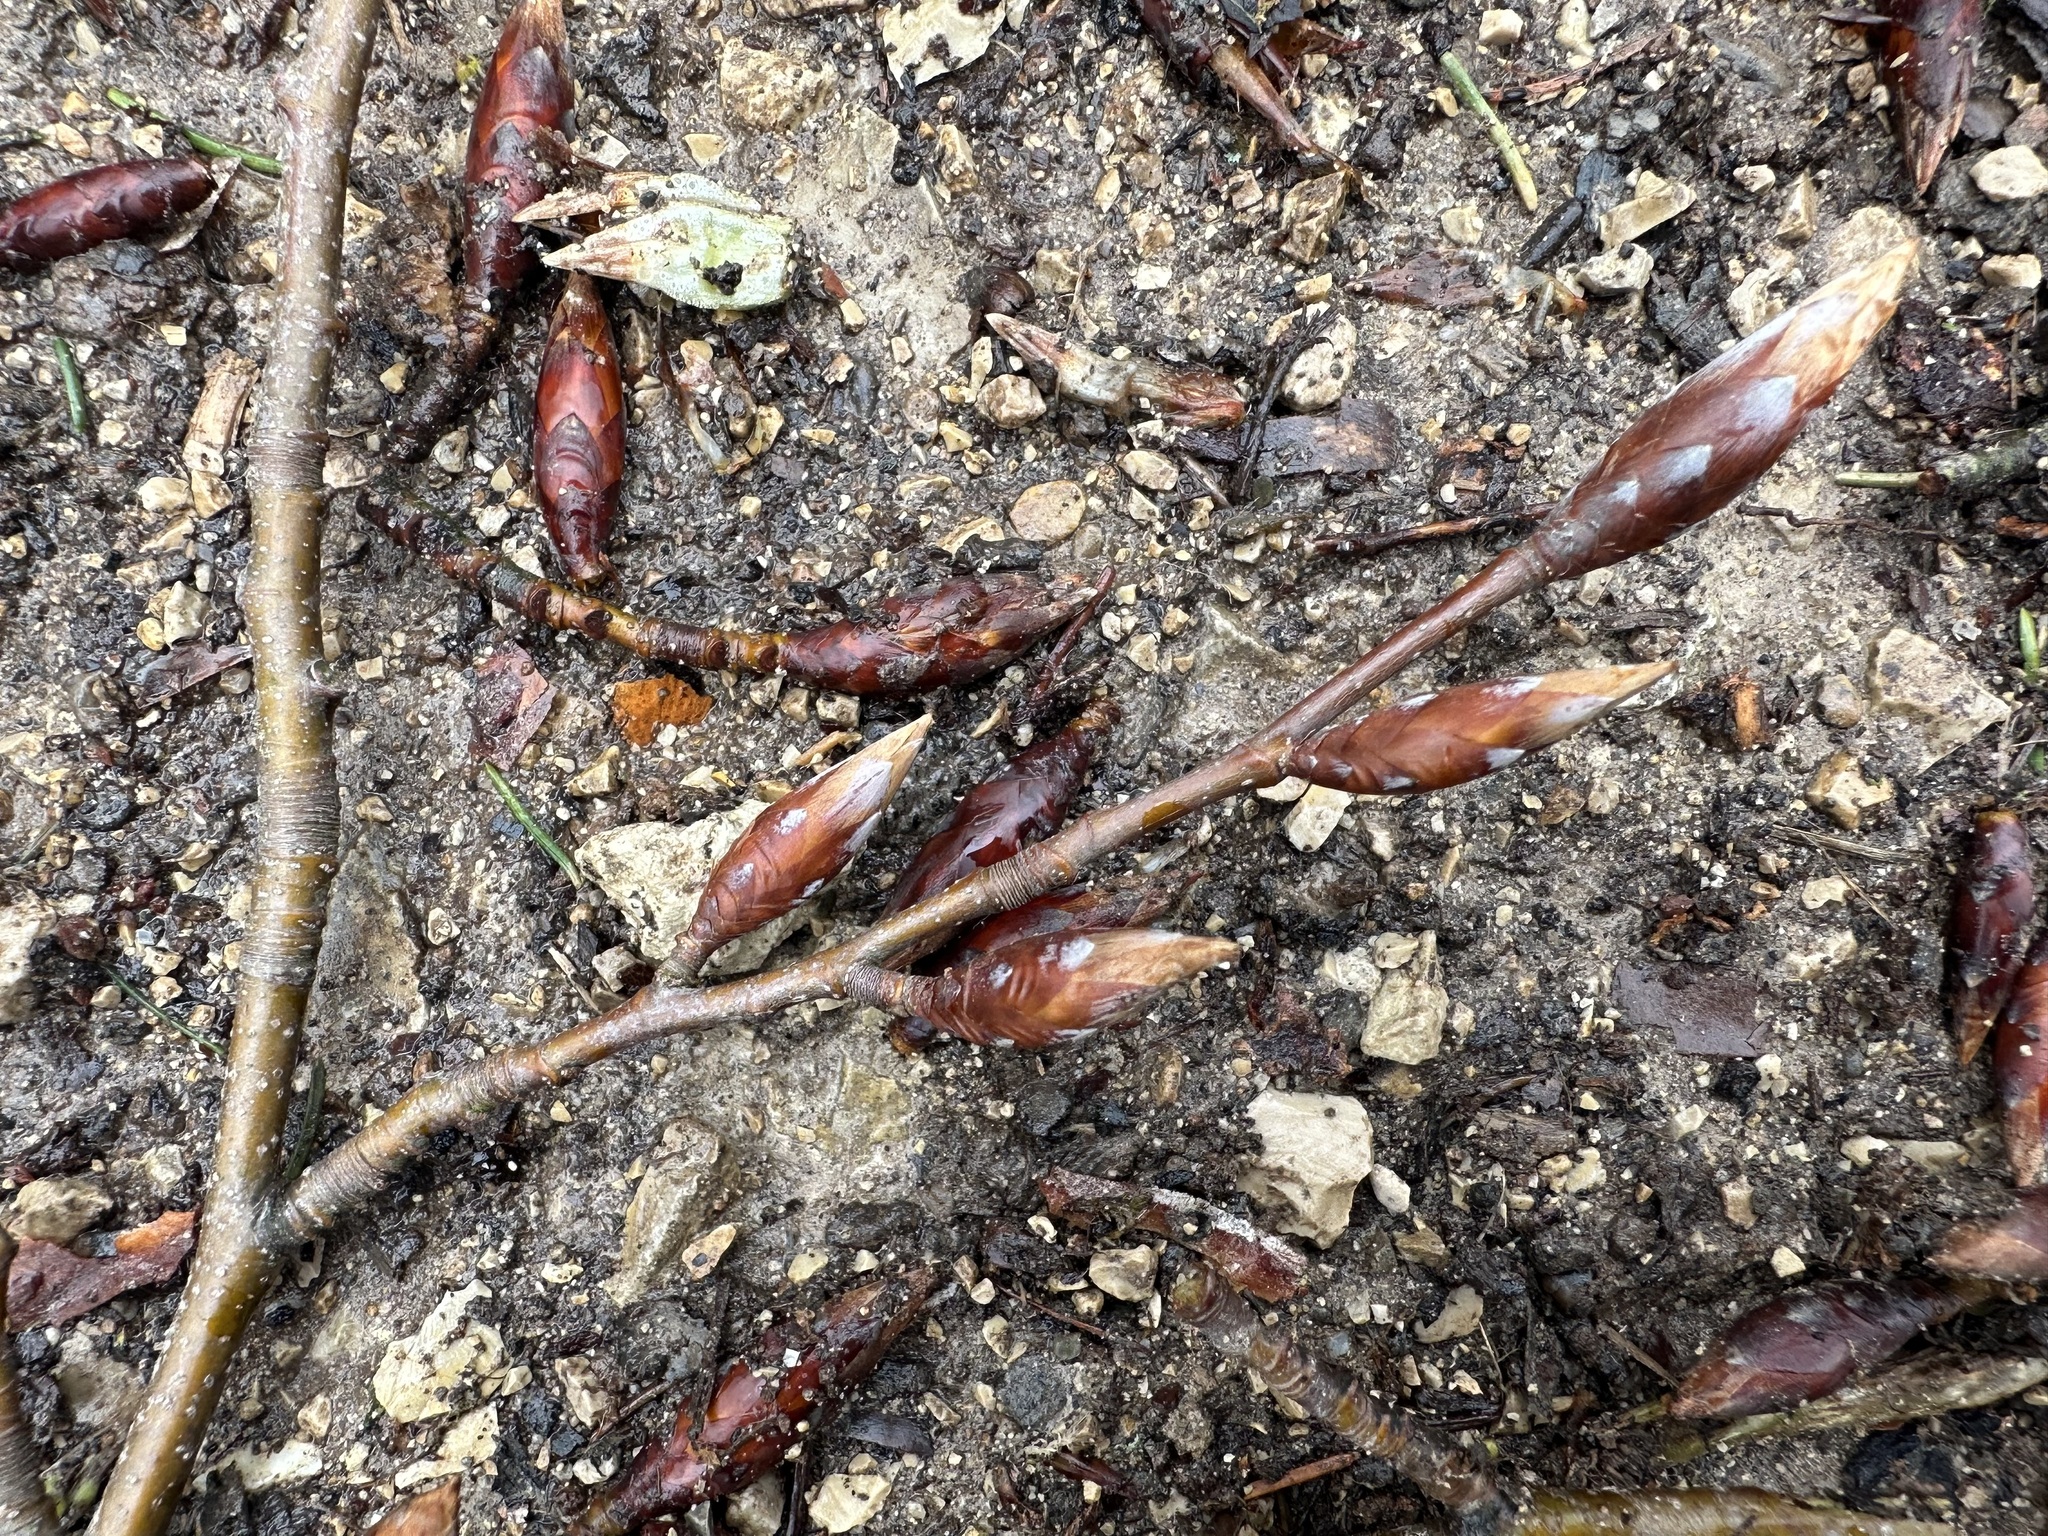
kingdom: Plantae
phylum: Tracheophyta
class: Magnoliopsida
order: Fagales
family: Fagaceae
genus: Fagus
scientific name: Fagus sylvatica
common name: Beech
